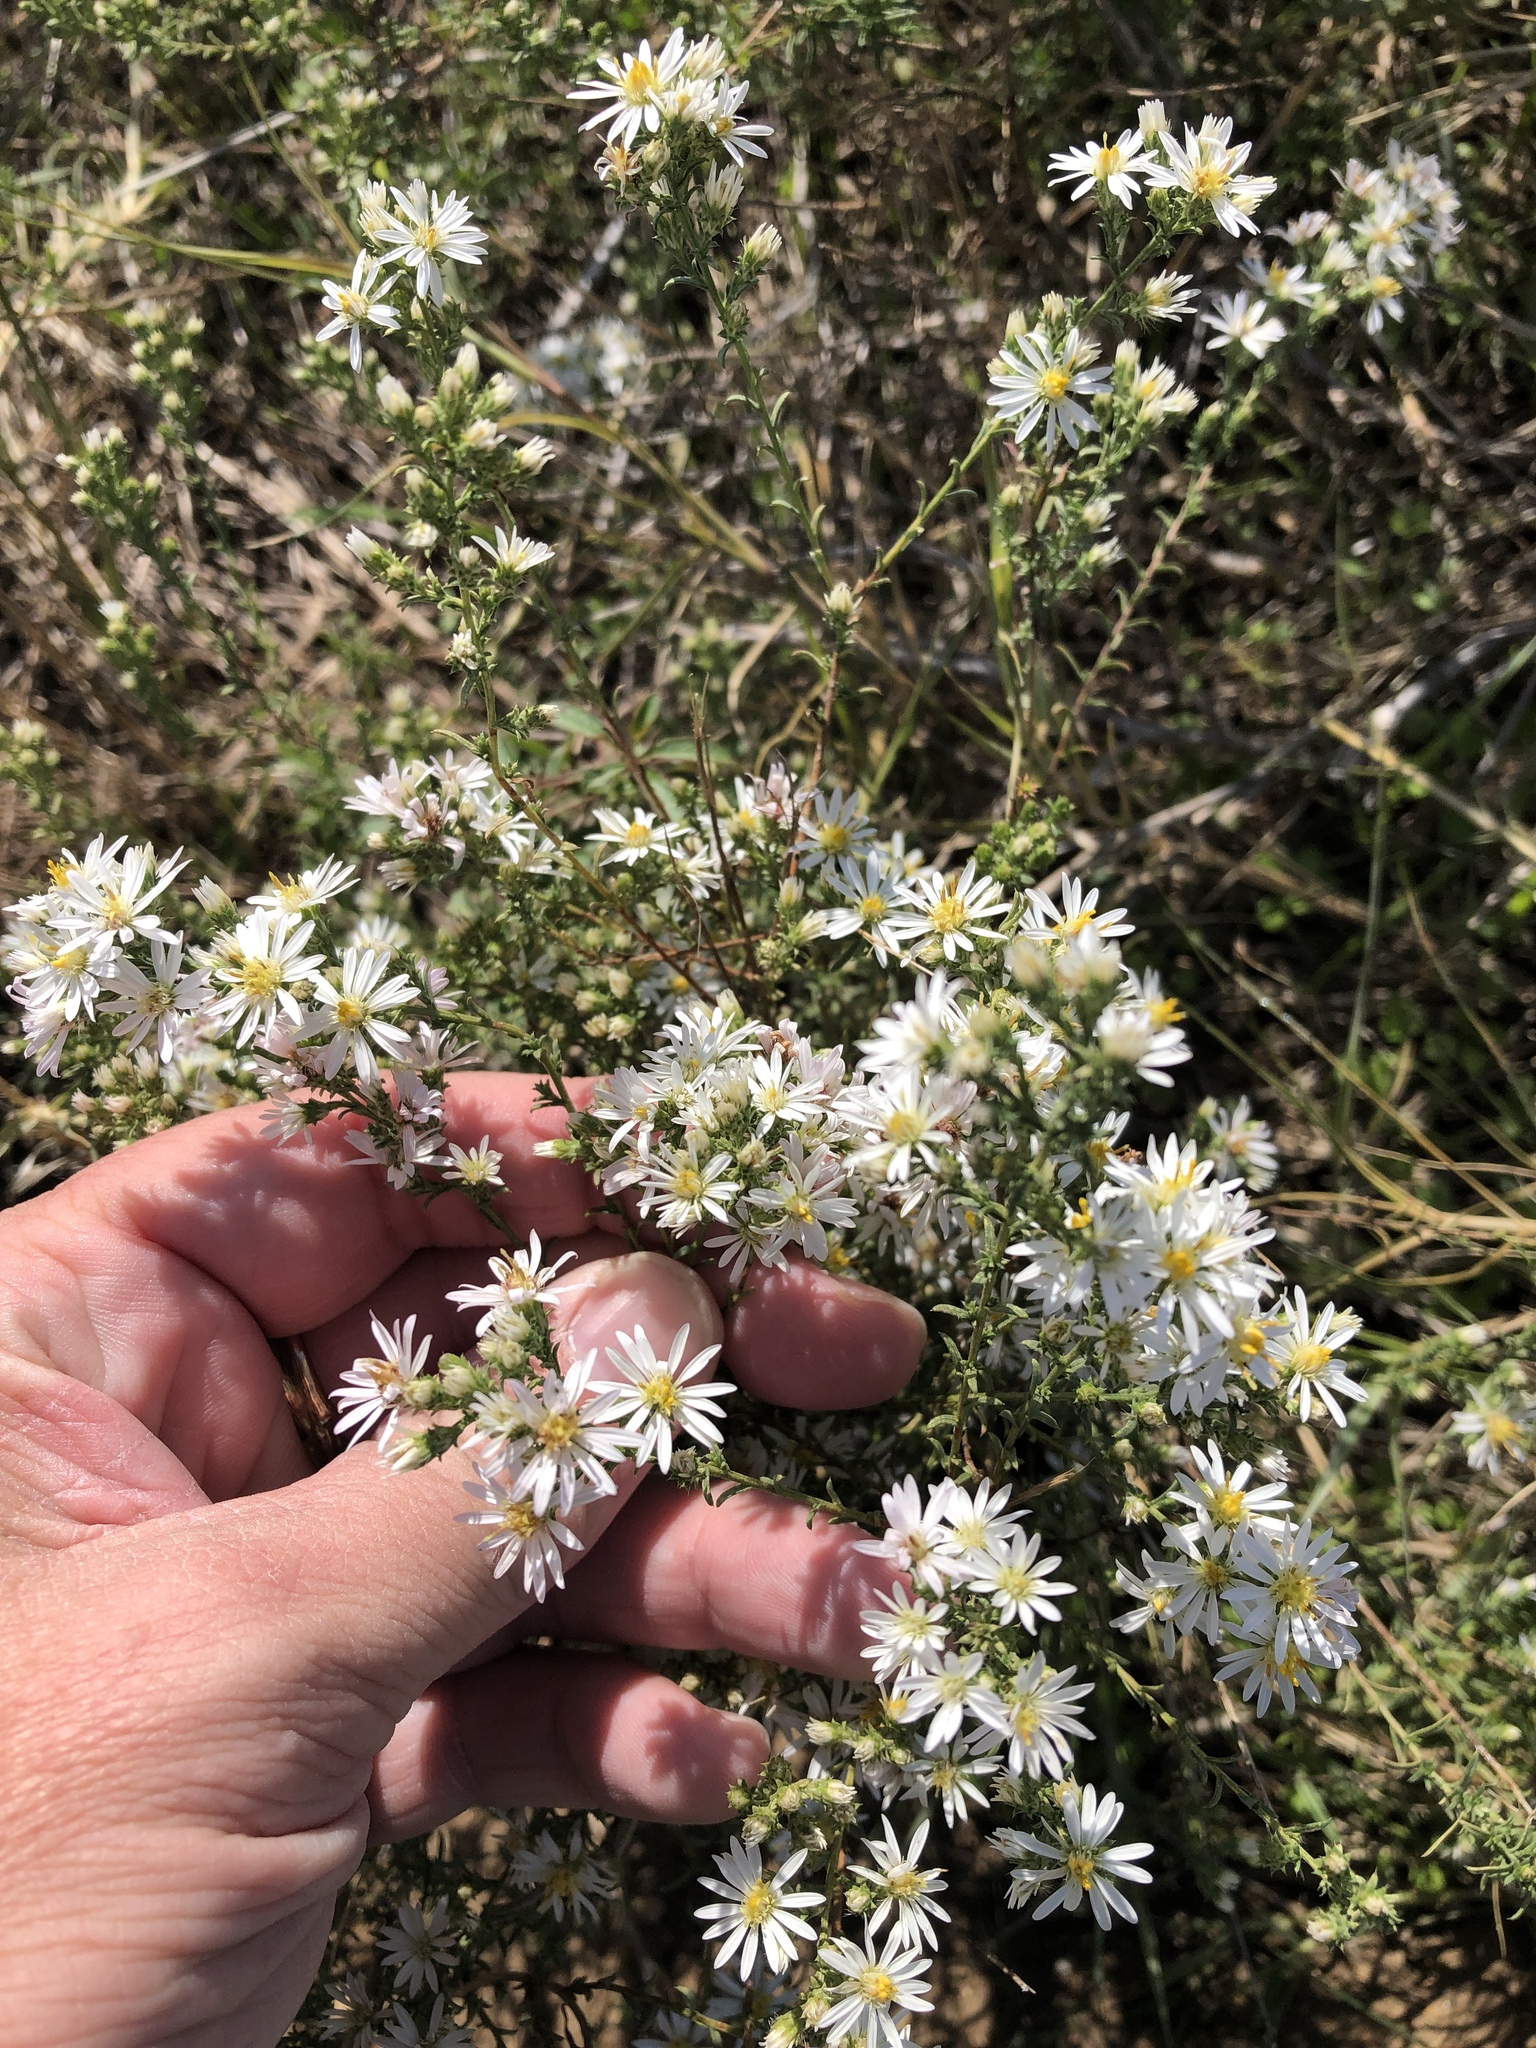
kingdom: Plantae
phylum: Tracheophyta
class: Magnoliopsida
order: Asterales
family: Asteraceae
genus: Symphyotrichum
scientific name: Symphyotrichum ericoides
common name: Heath aster
